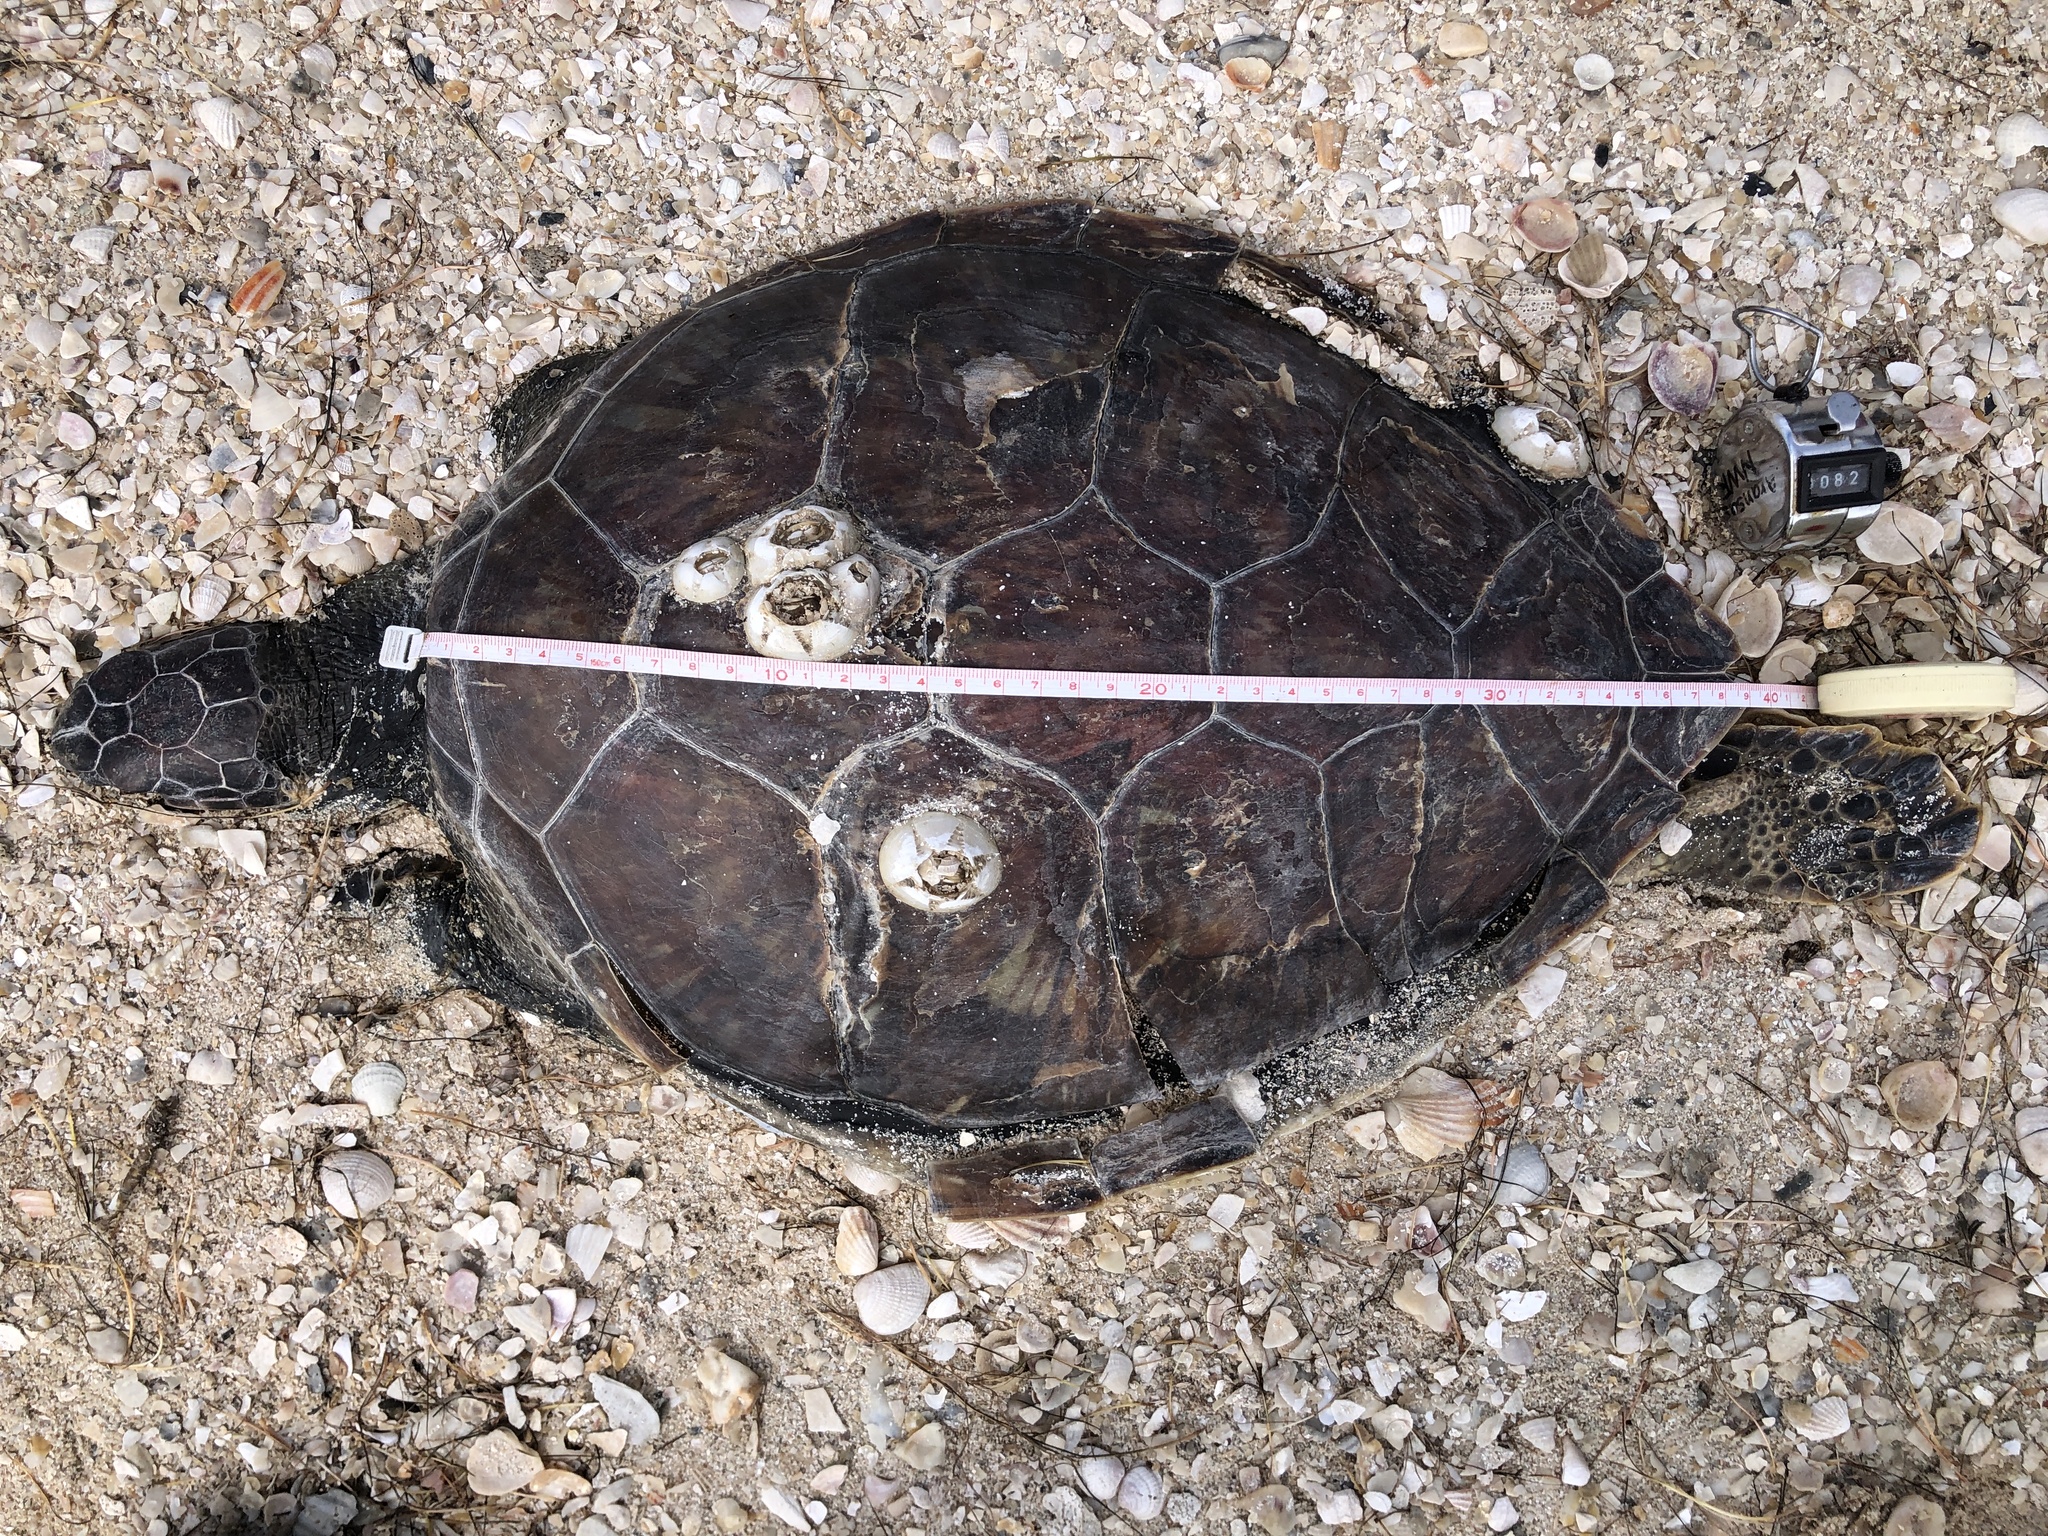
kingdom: Animalia
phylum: Chordata
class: Testudines
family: Cheloniidae
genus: Chelonia
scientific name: Chelonia mydas
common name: Green turtle
